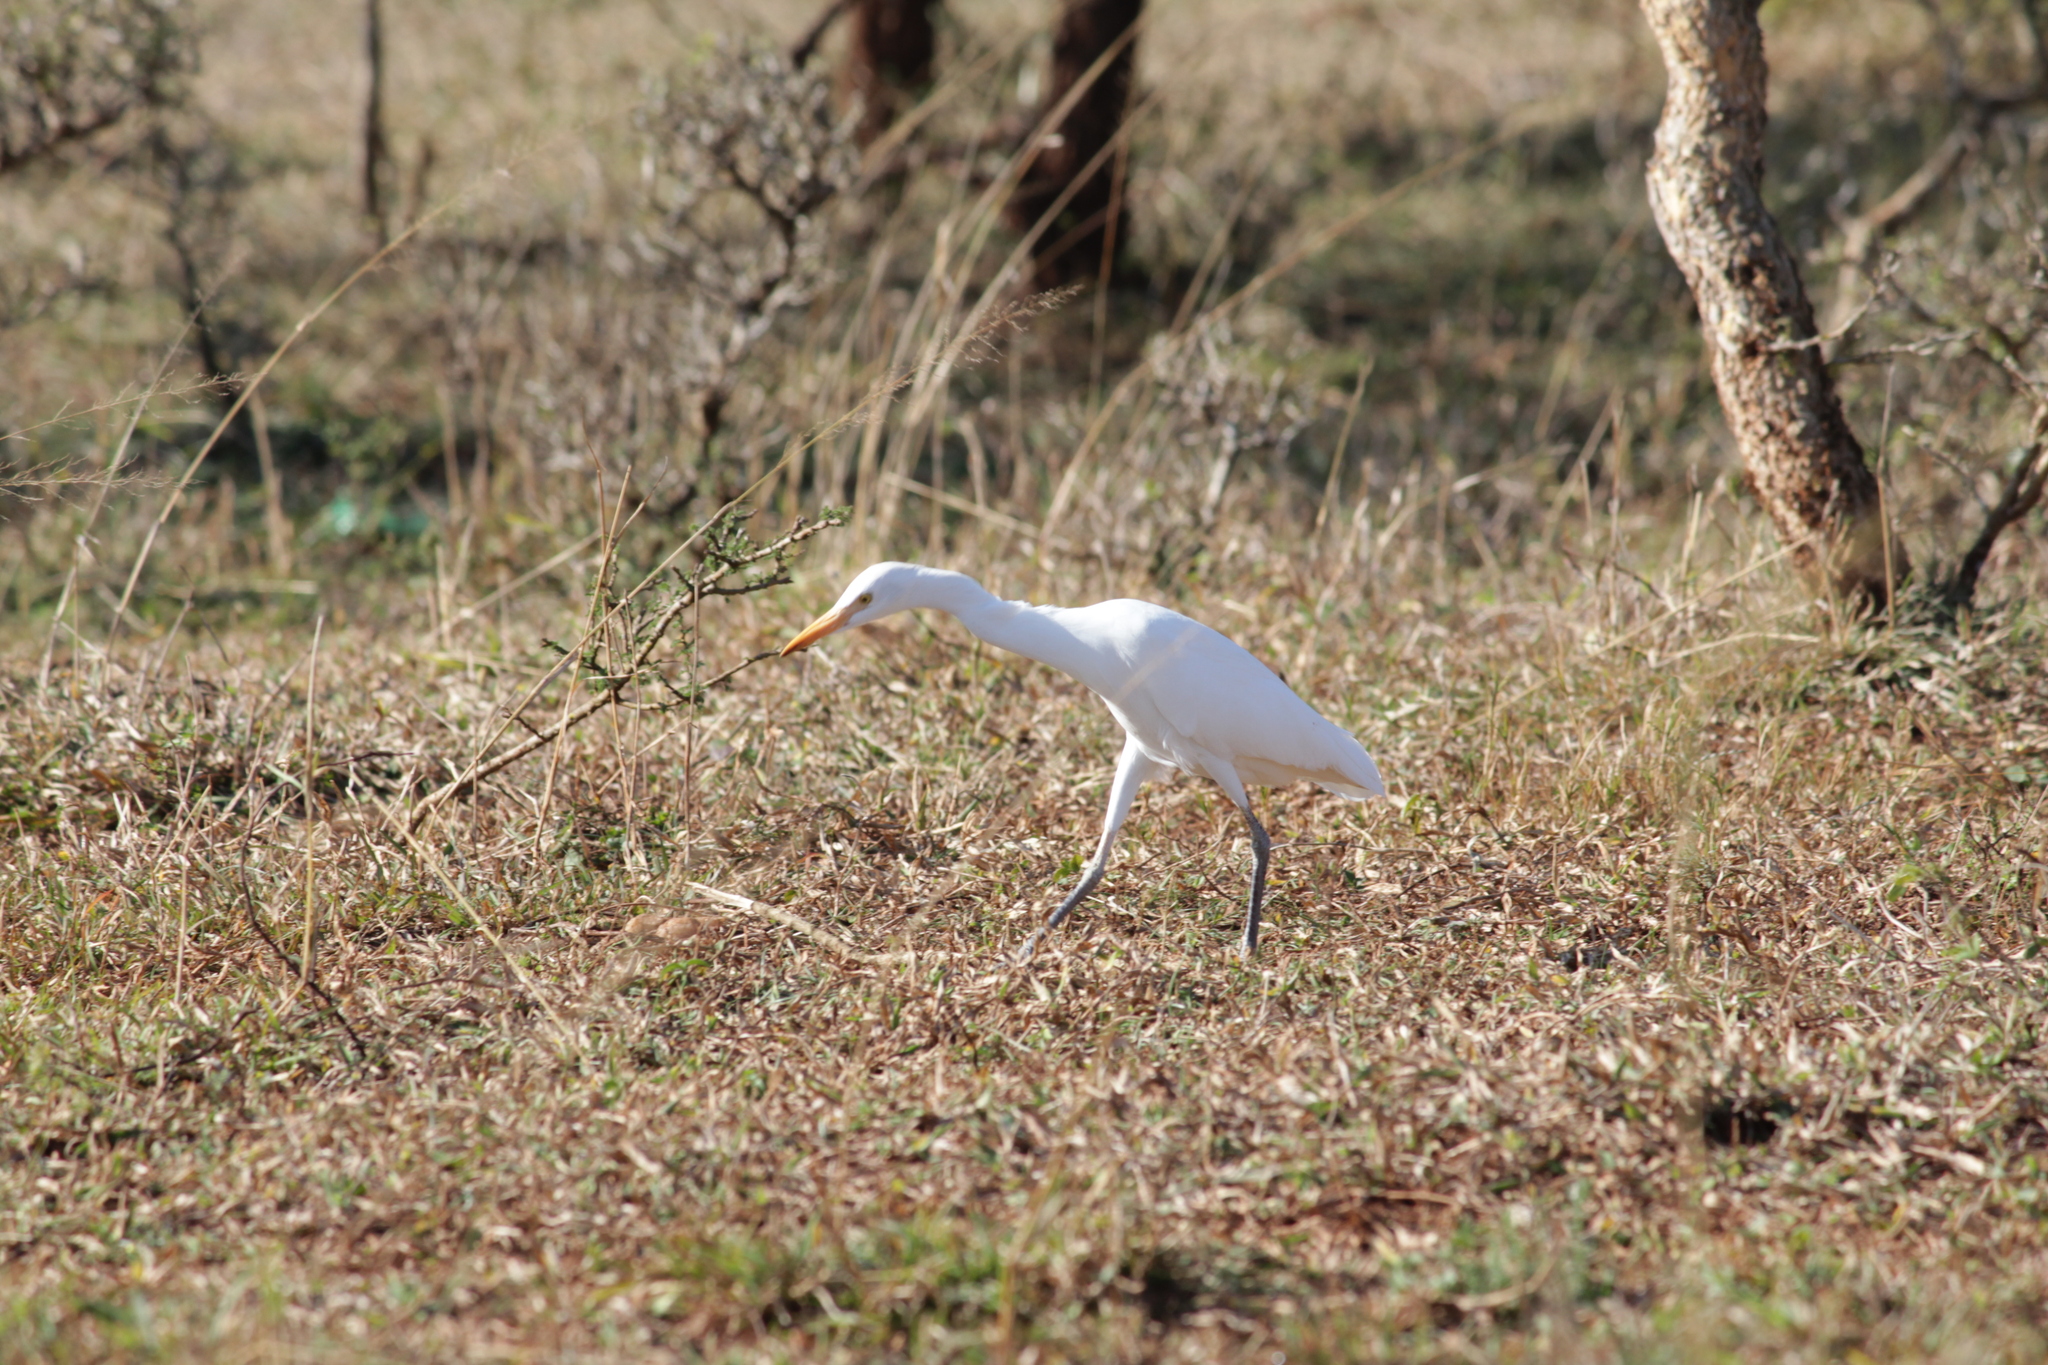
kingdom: Animalia
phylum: Chordata
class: Aves
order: Pelecaniformes
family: Ardeidae
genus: Bubulcus
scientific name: Bubulcus ibis
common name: Cattle egret
